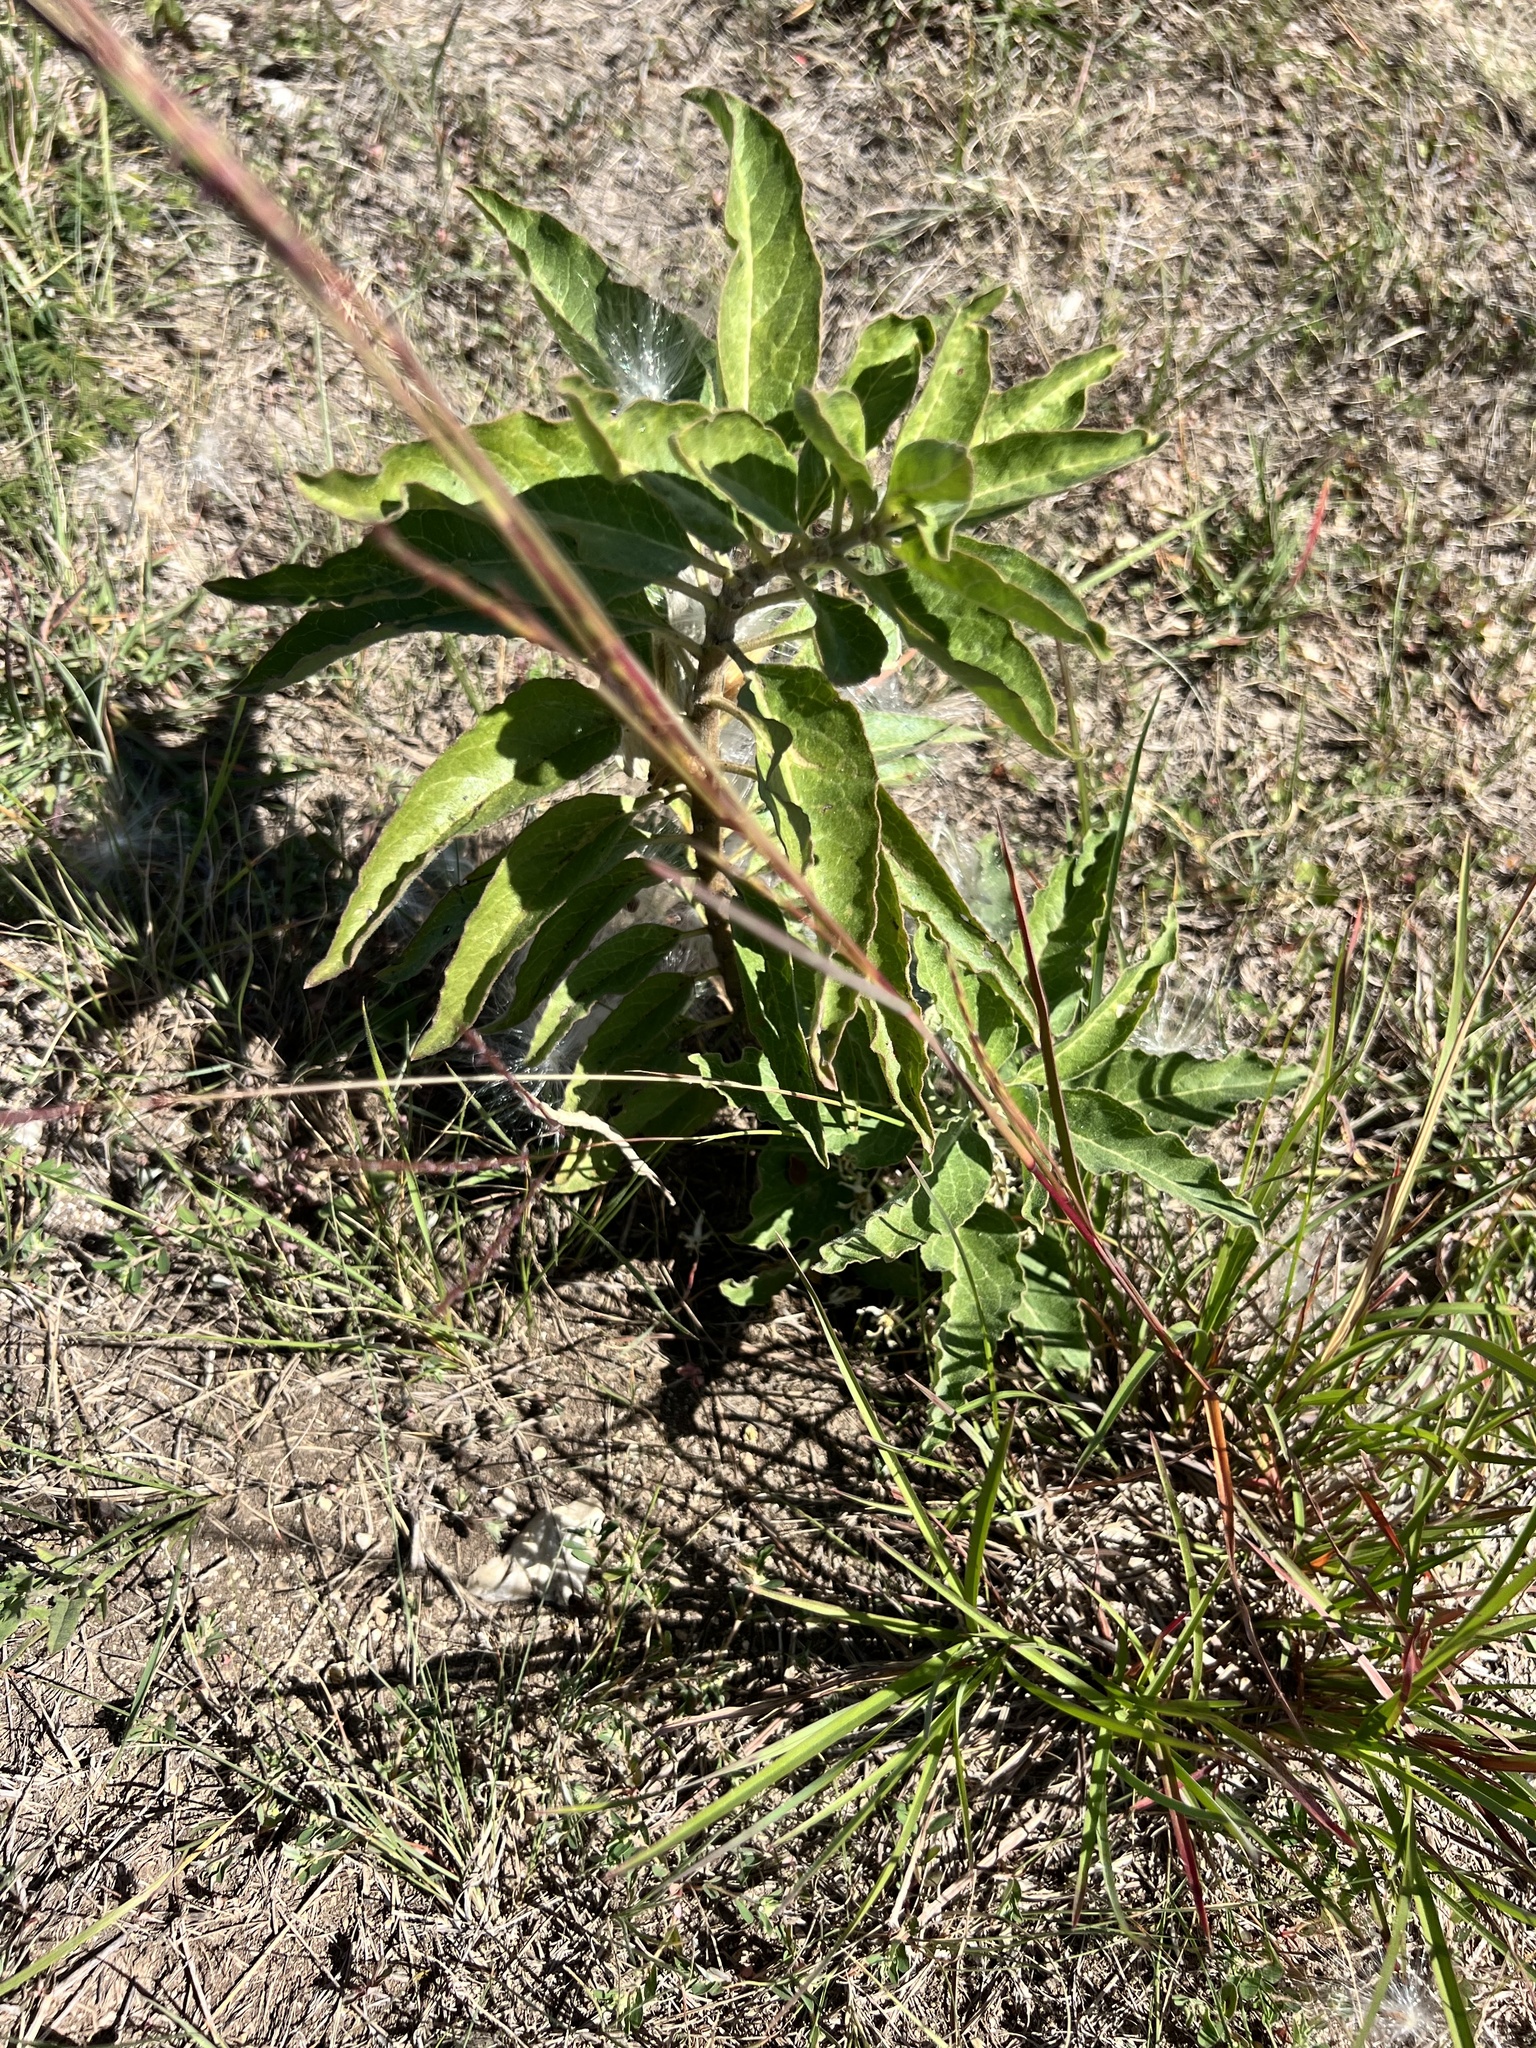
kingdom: Plantae
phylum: Tracheophyta
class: Magnoliopsida
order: Gentianales
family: Apocynaceae
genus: Asclepias
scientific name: Asclepias oenotheroides
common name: Zizotes milkweed
